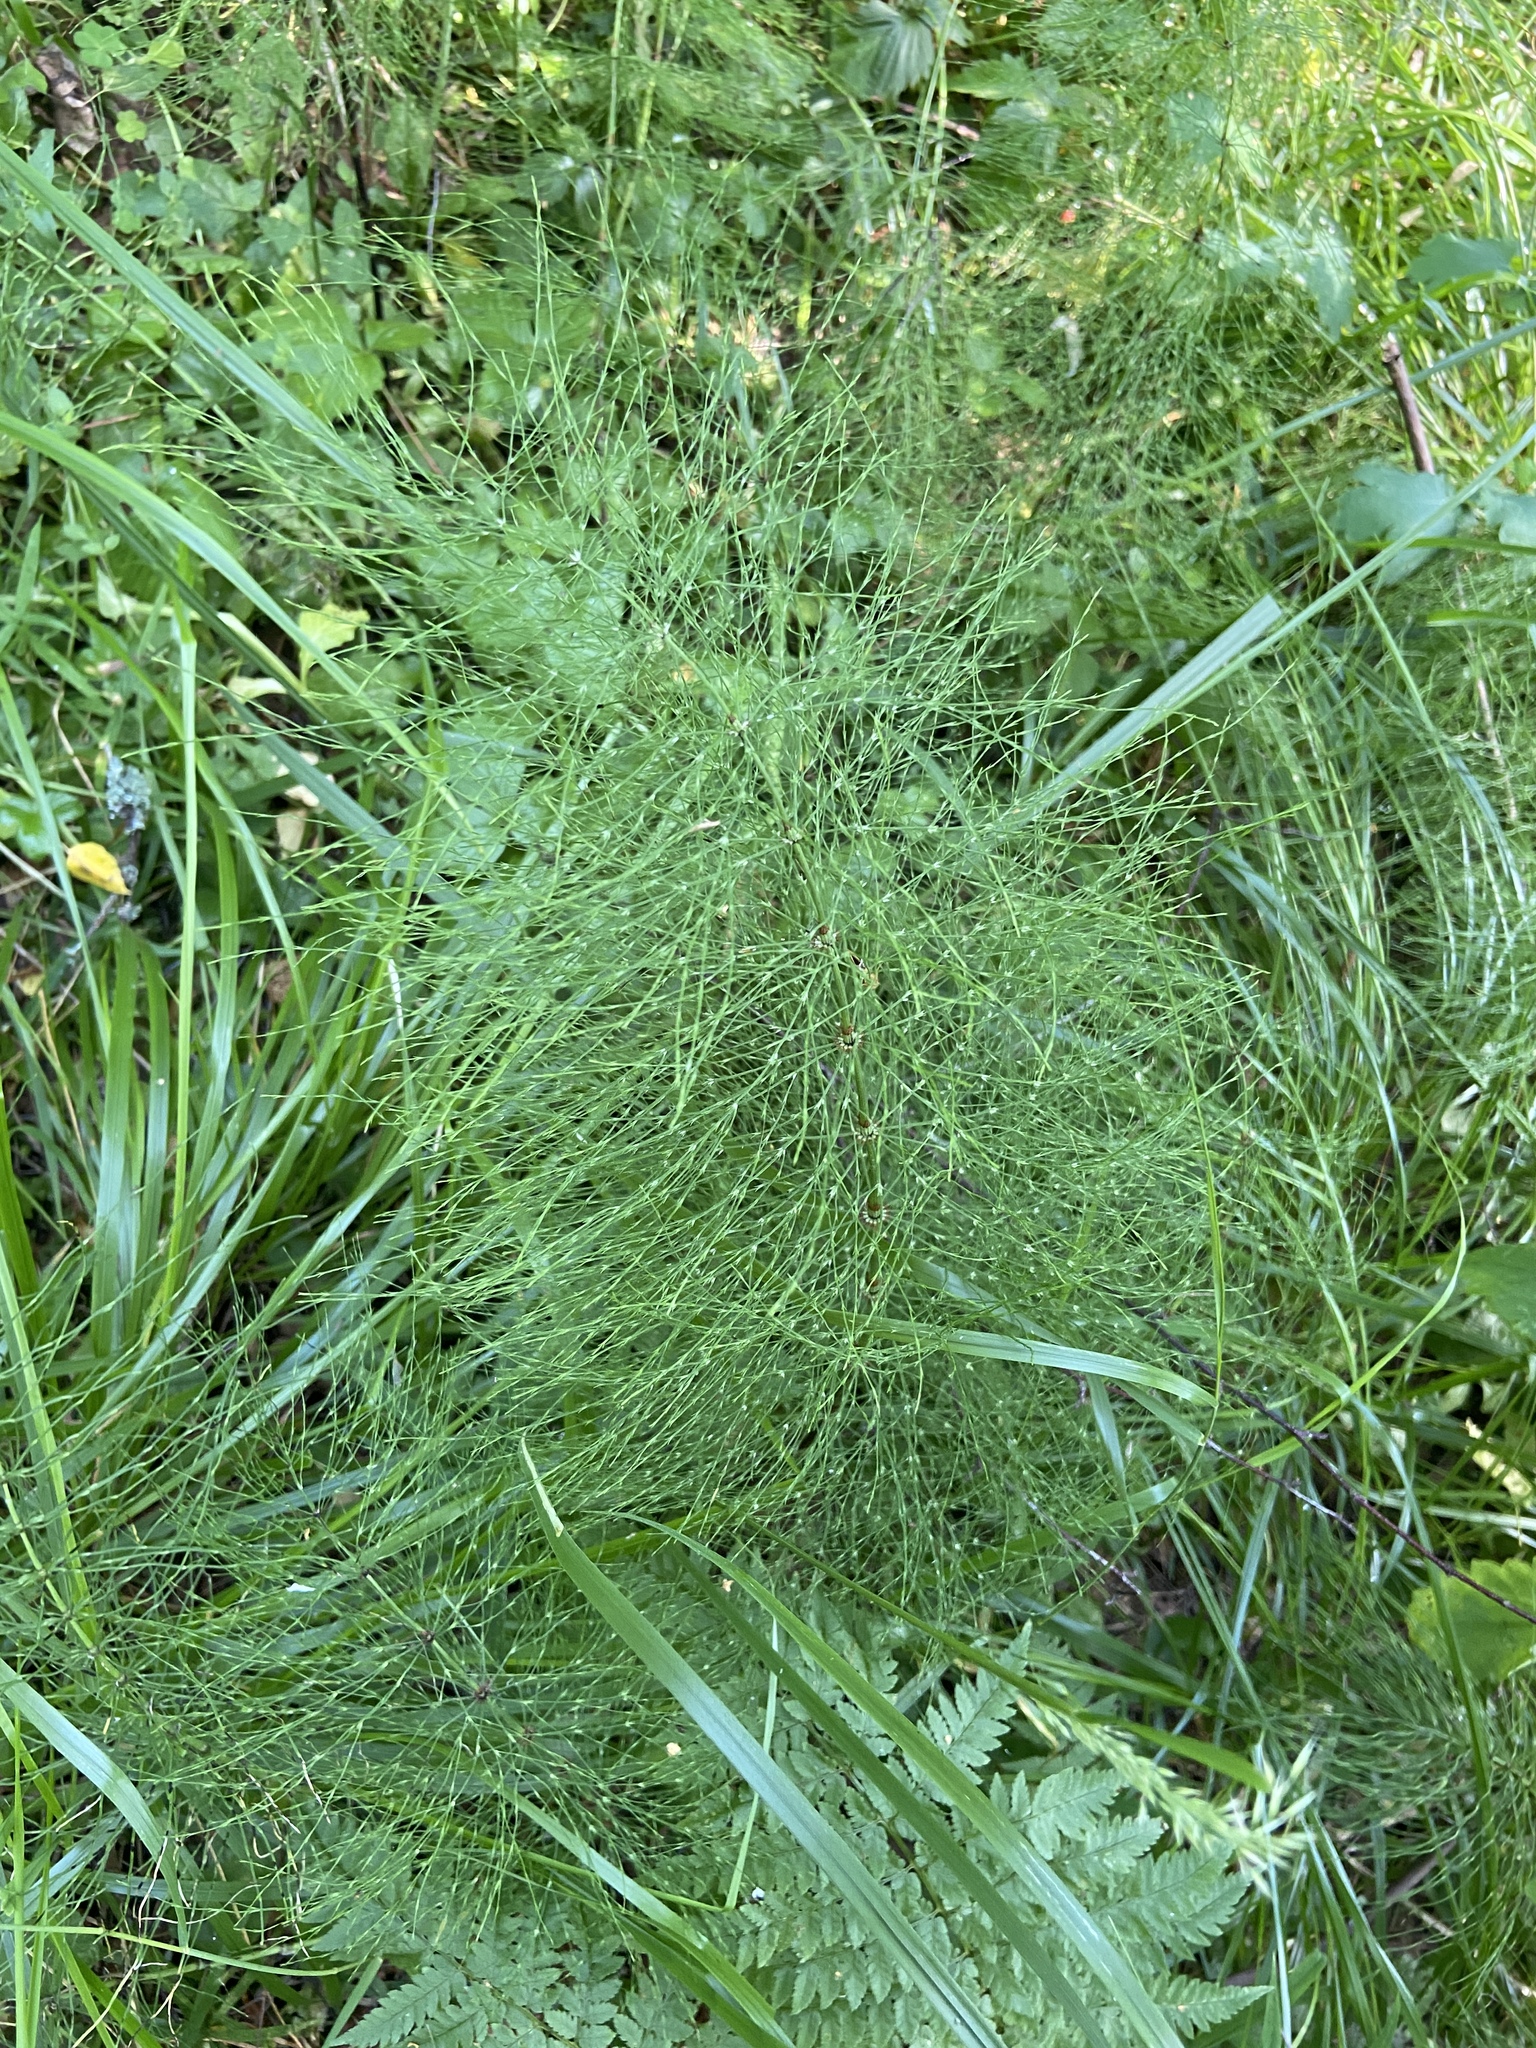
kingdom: Plantae
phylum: Tracheophyta
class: Polypodiopsida
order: Equisetales
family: Equisetaceae
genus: Equisetum
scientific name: Equisetum sylvaticum
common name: Wood horsetail
